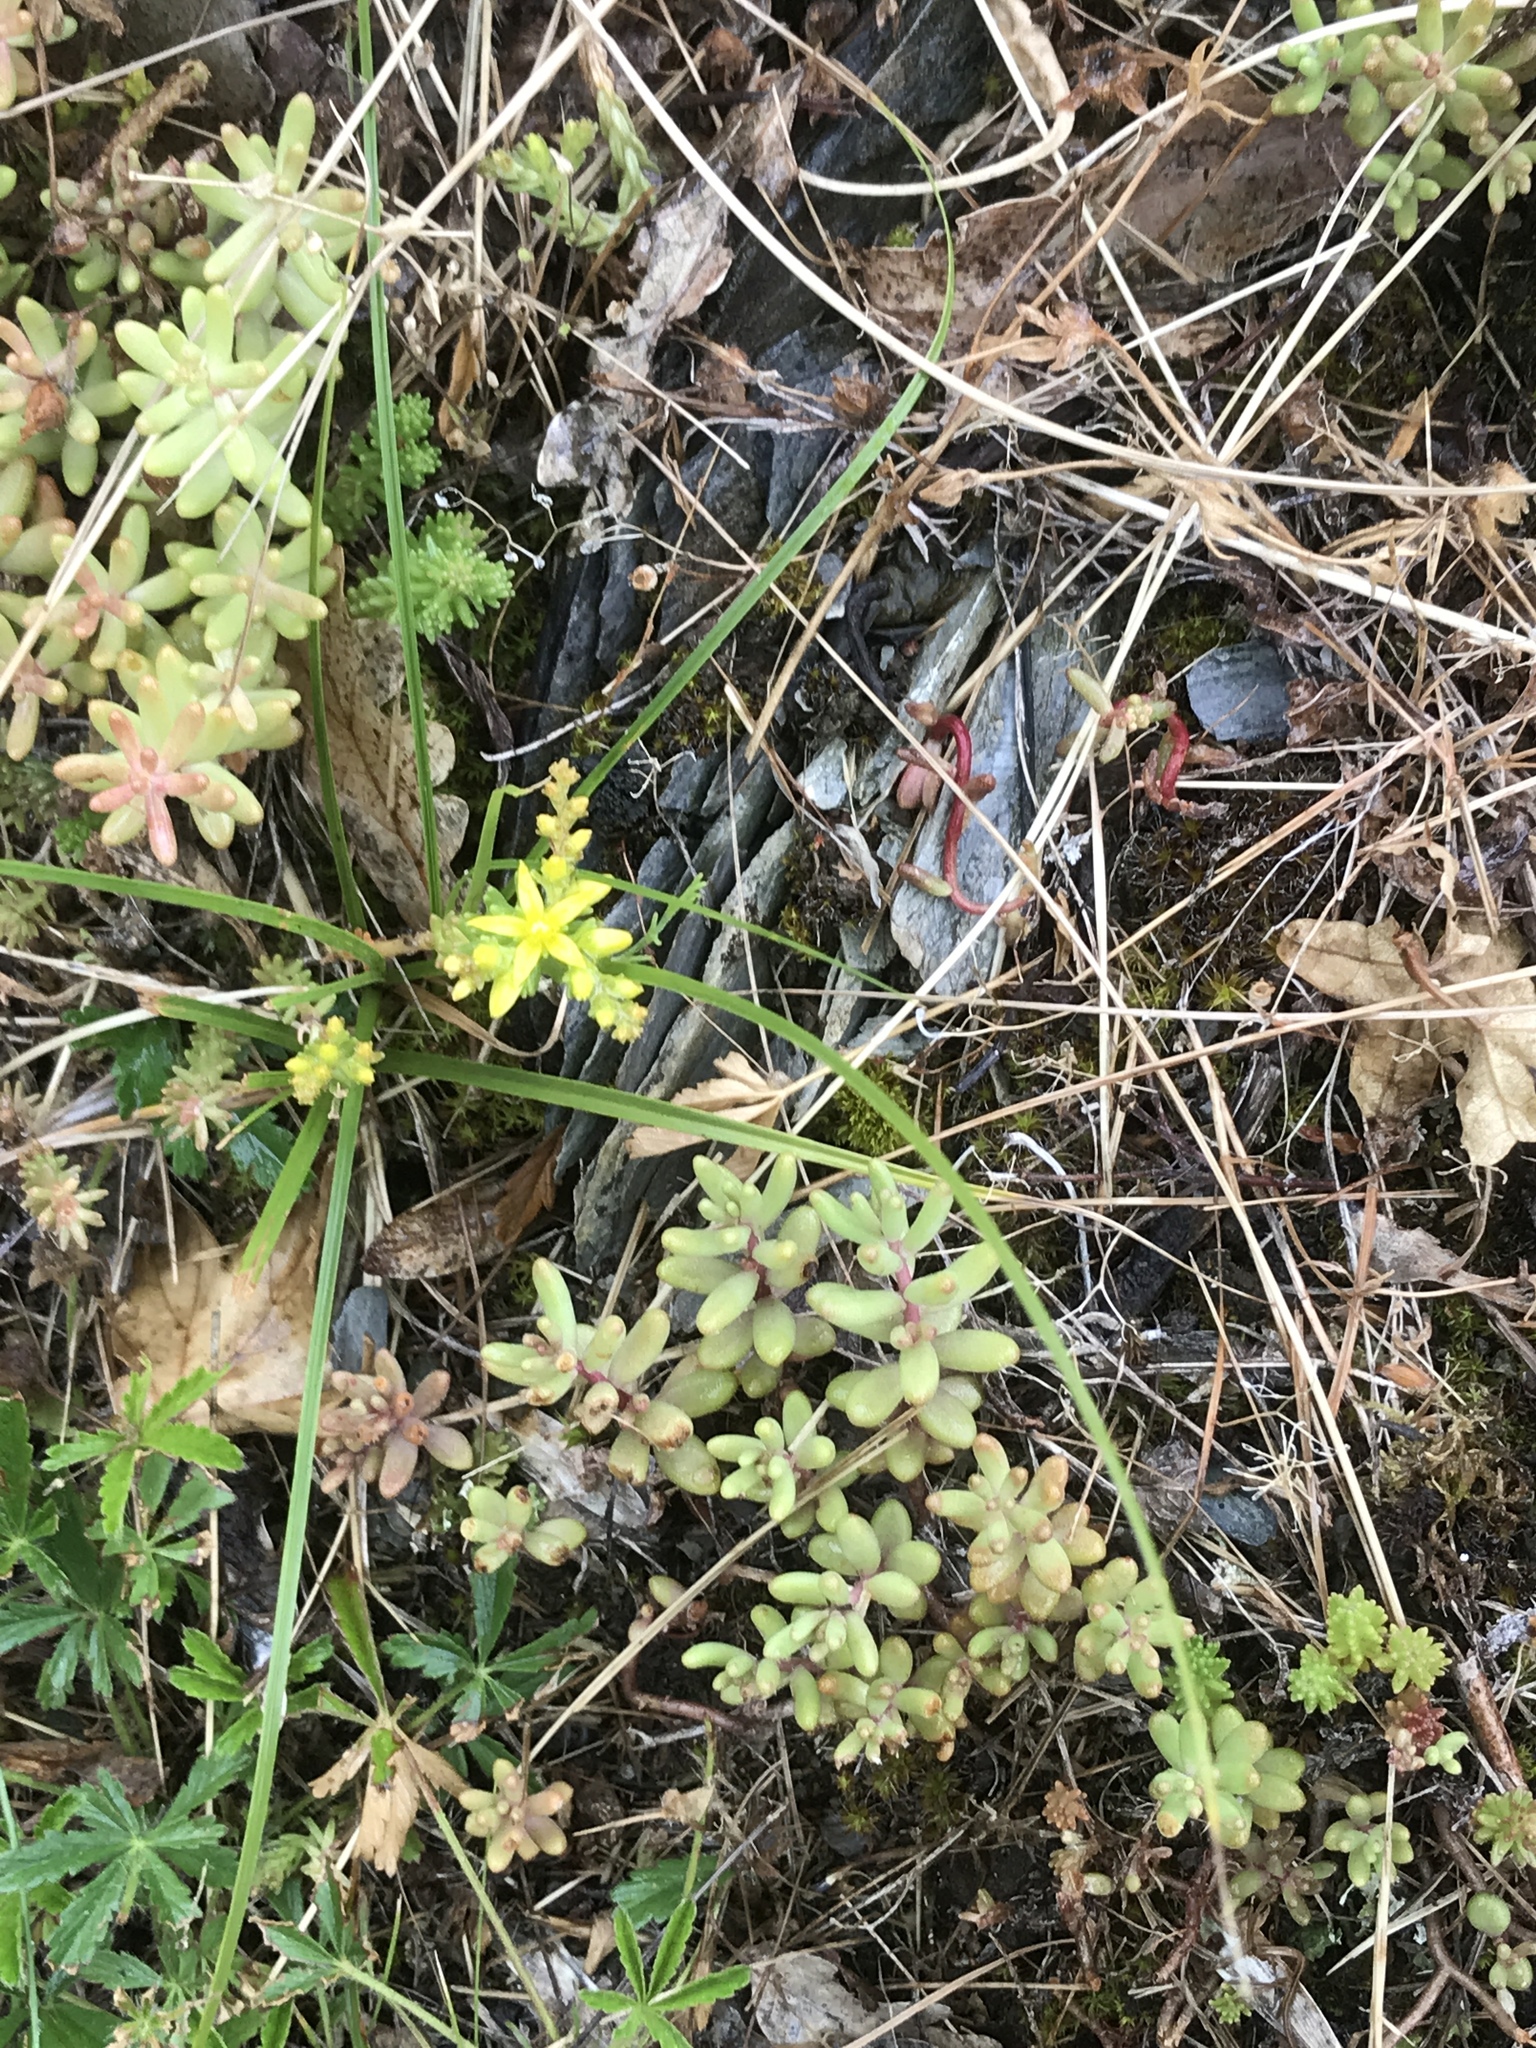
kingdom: Plantae
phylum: Tracheophyta
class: Magnoliopsida
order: Saxifragales
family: Crassulaceae
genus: Sedum
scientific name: Sedum sexangulare
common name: Tasteless stonecrop
